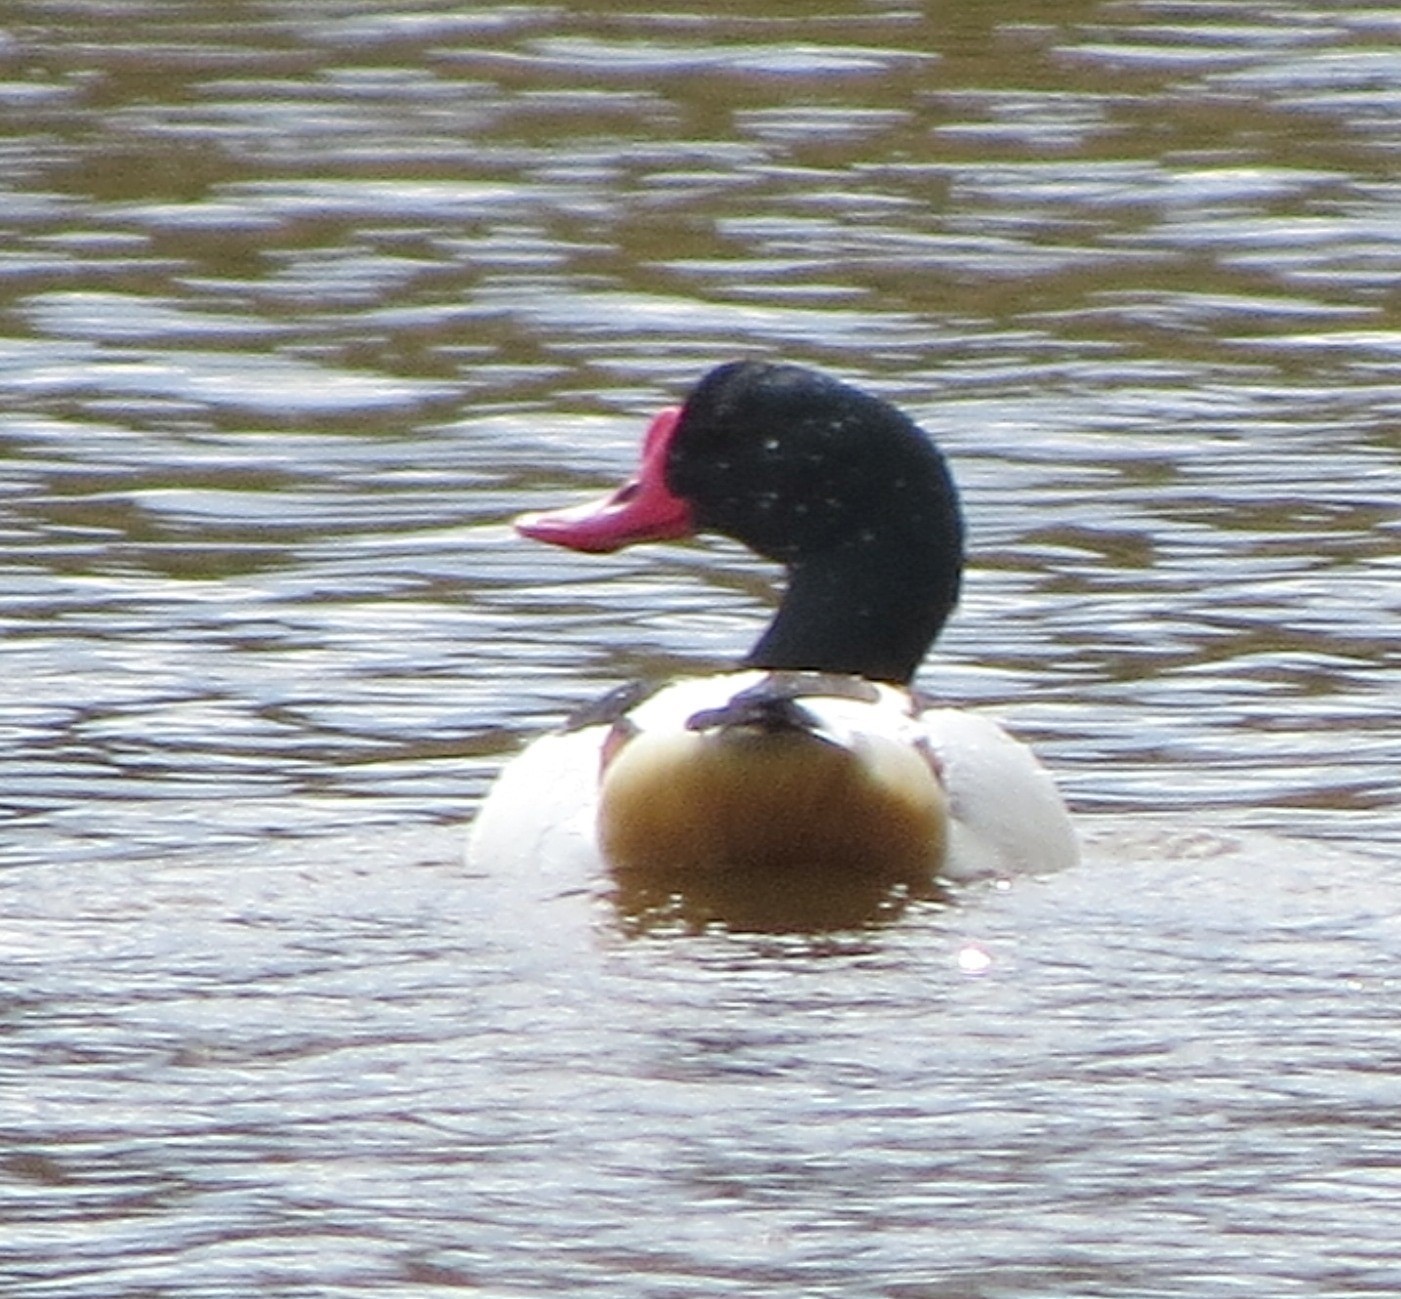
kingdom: Animalia
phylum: Chordata
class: Aves
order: Anseriformes
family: Anatidae
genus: Tadorna
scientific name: Tadorna tadorna
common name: Common shelduck
